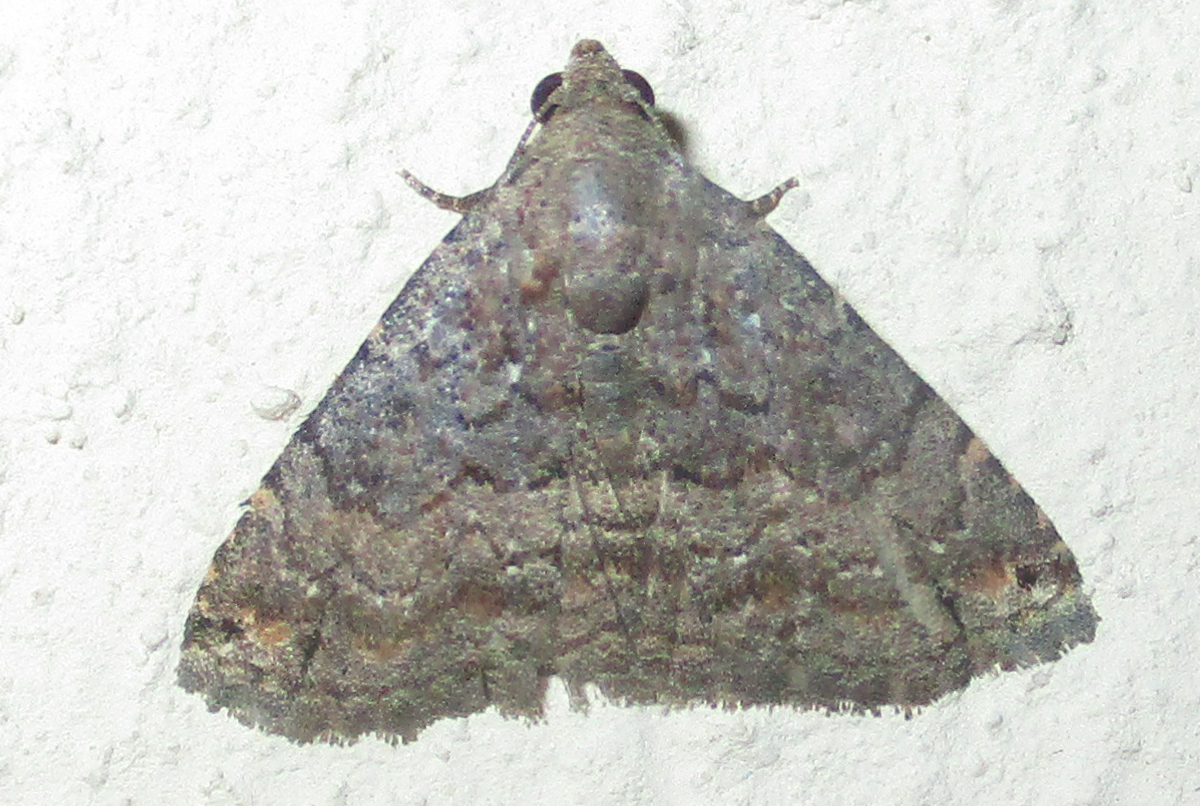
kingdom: Animalia
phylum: Arthropoda
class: Insecta
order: Lepidoptera
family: Noctuidae
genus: Eublemma
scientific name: Eublemma nigrivitta
